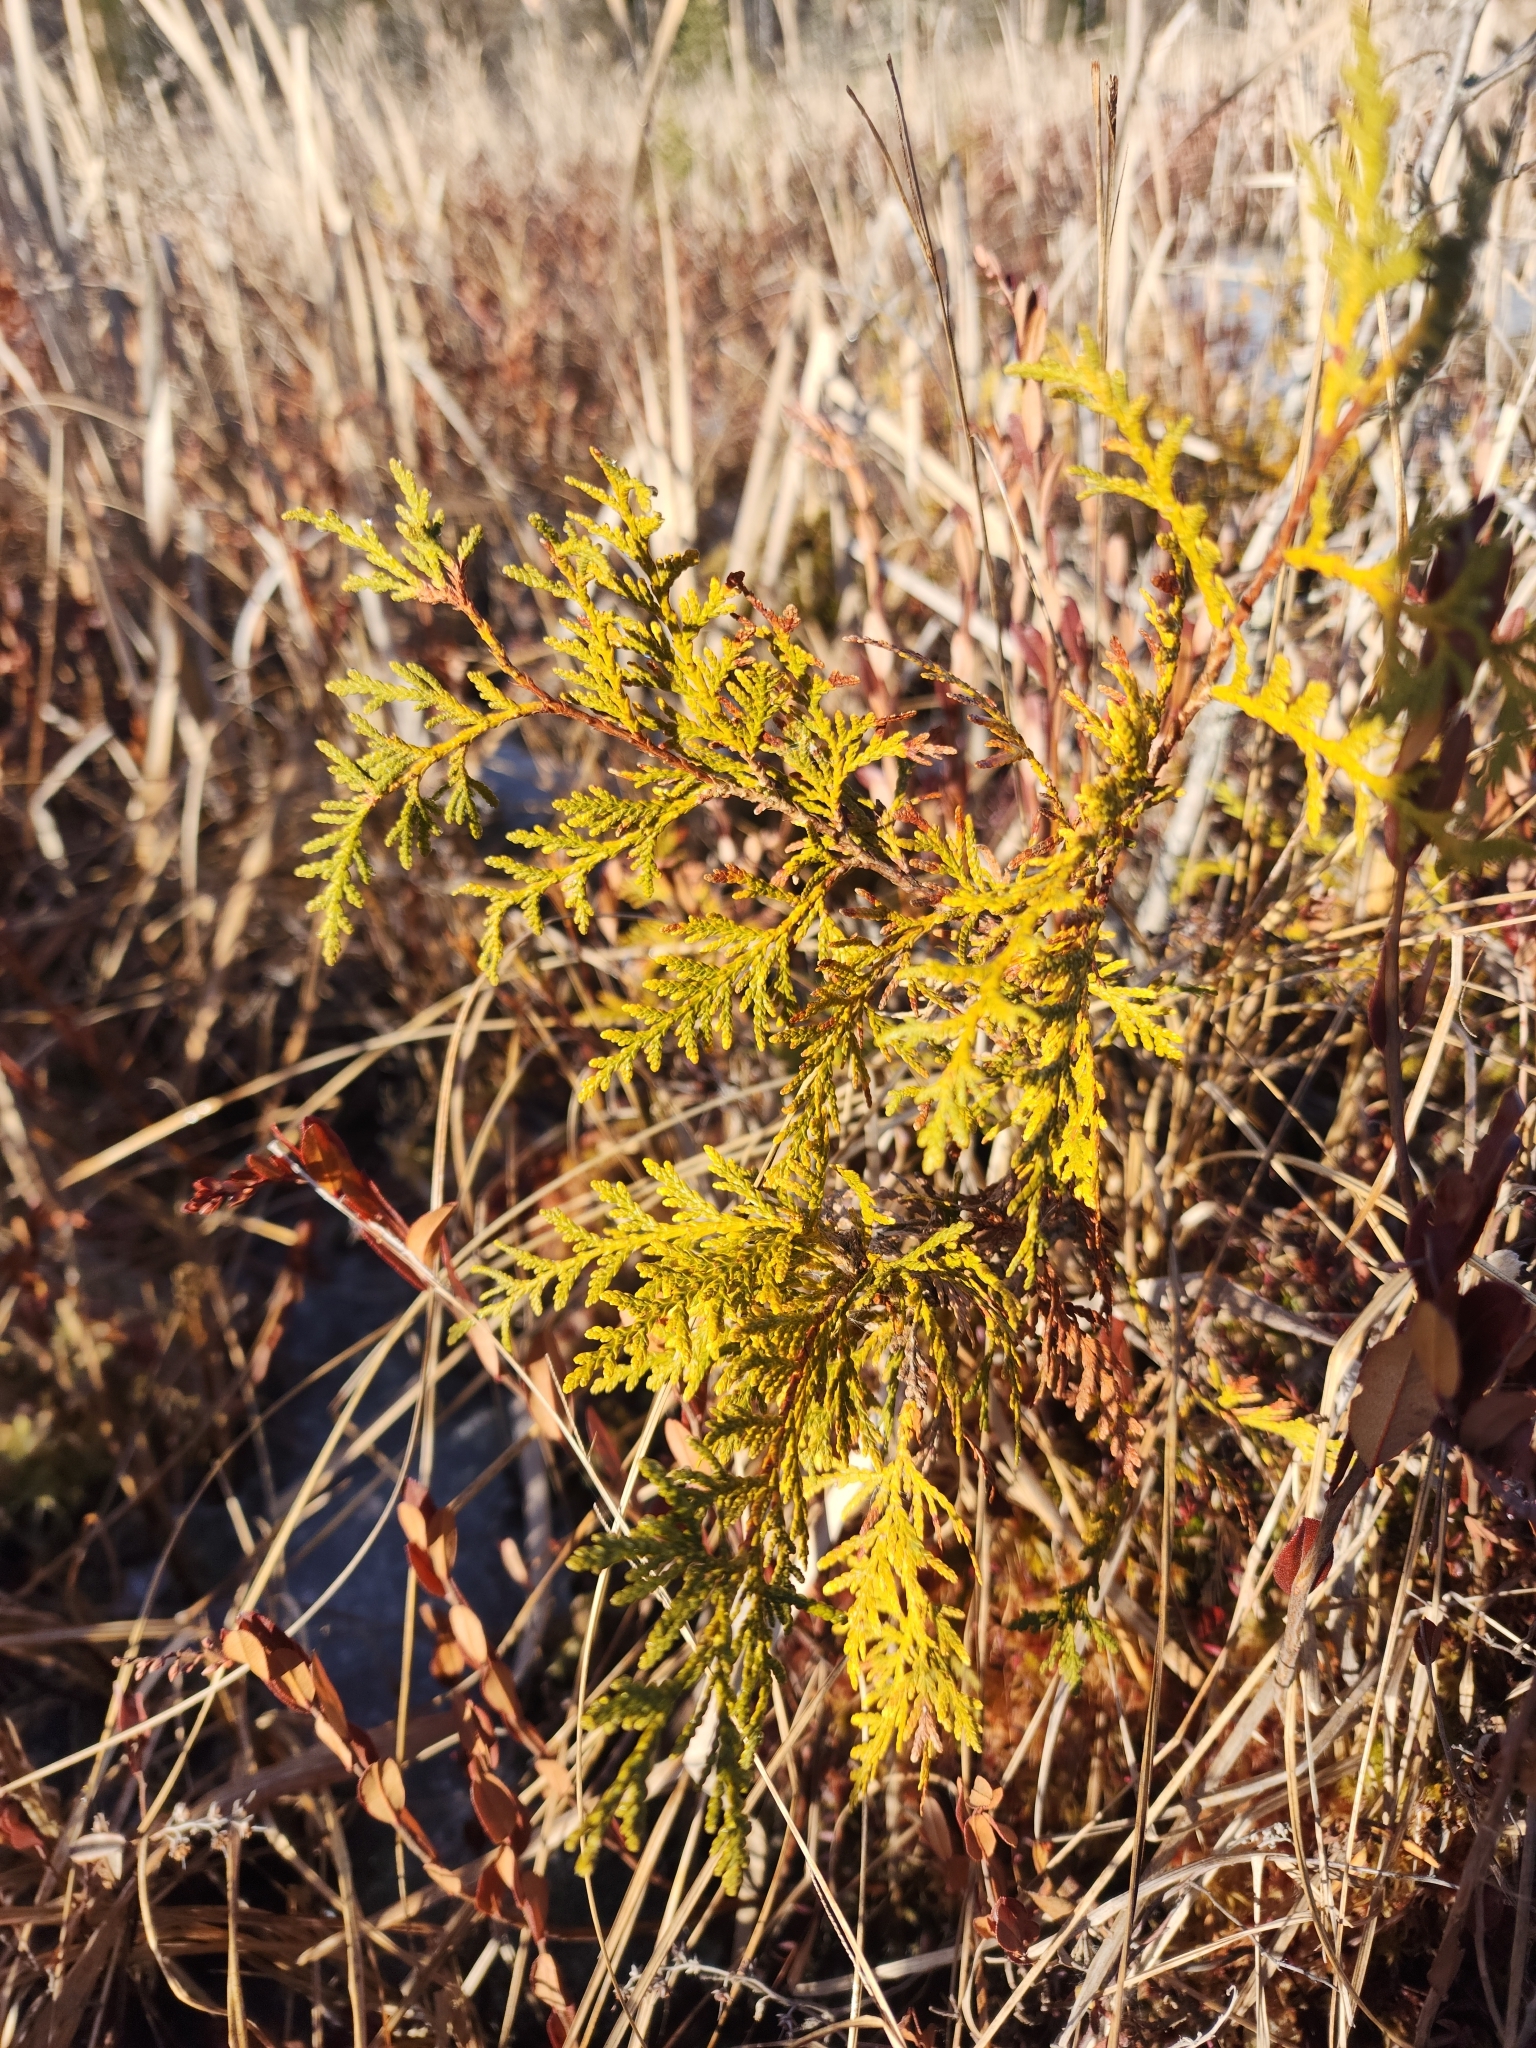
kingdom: Plantae
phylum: Tracheophyta
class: Pinopsida
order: Pinales
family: Cupressaceae
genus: Thuja
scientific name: Thuja occidentalis
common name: Northern white-cedar
